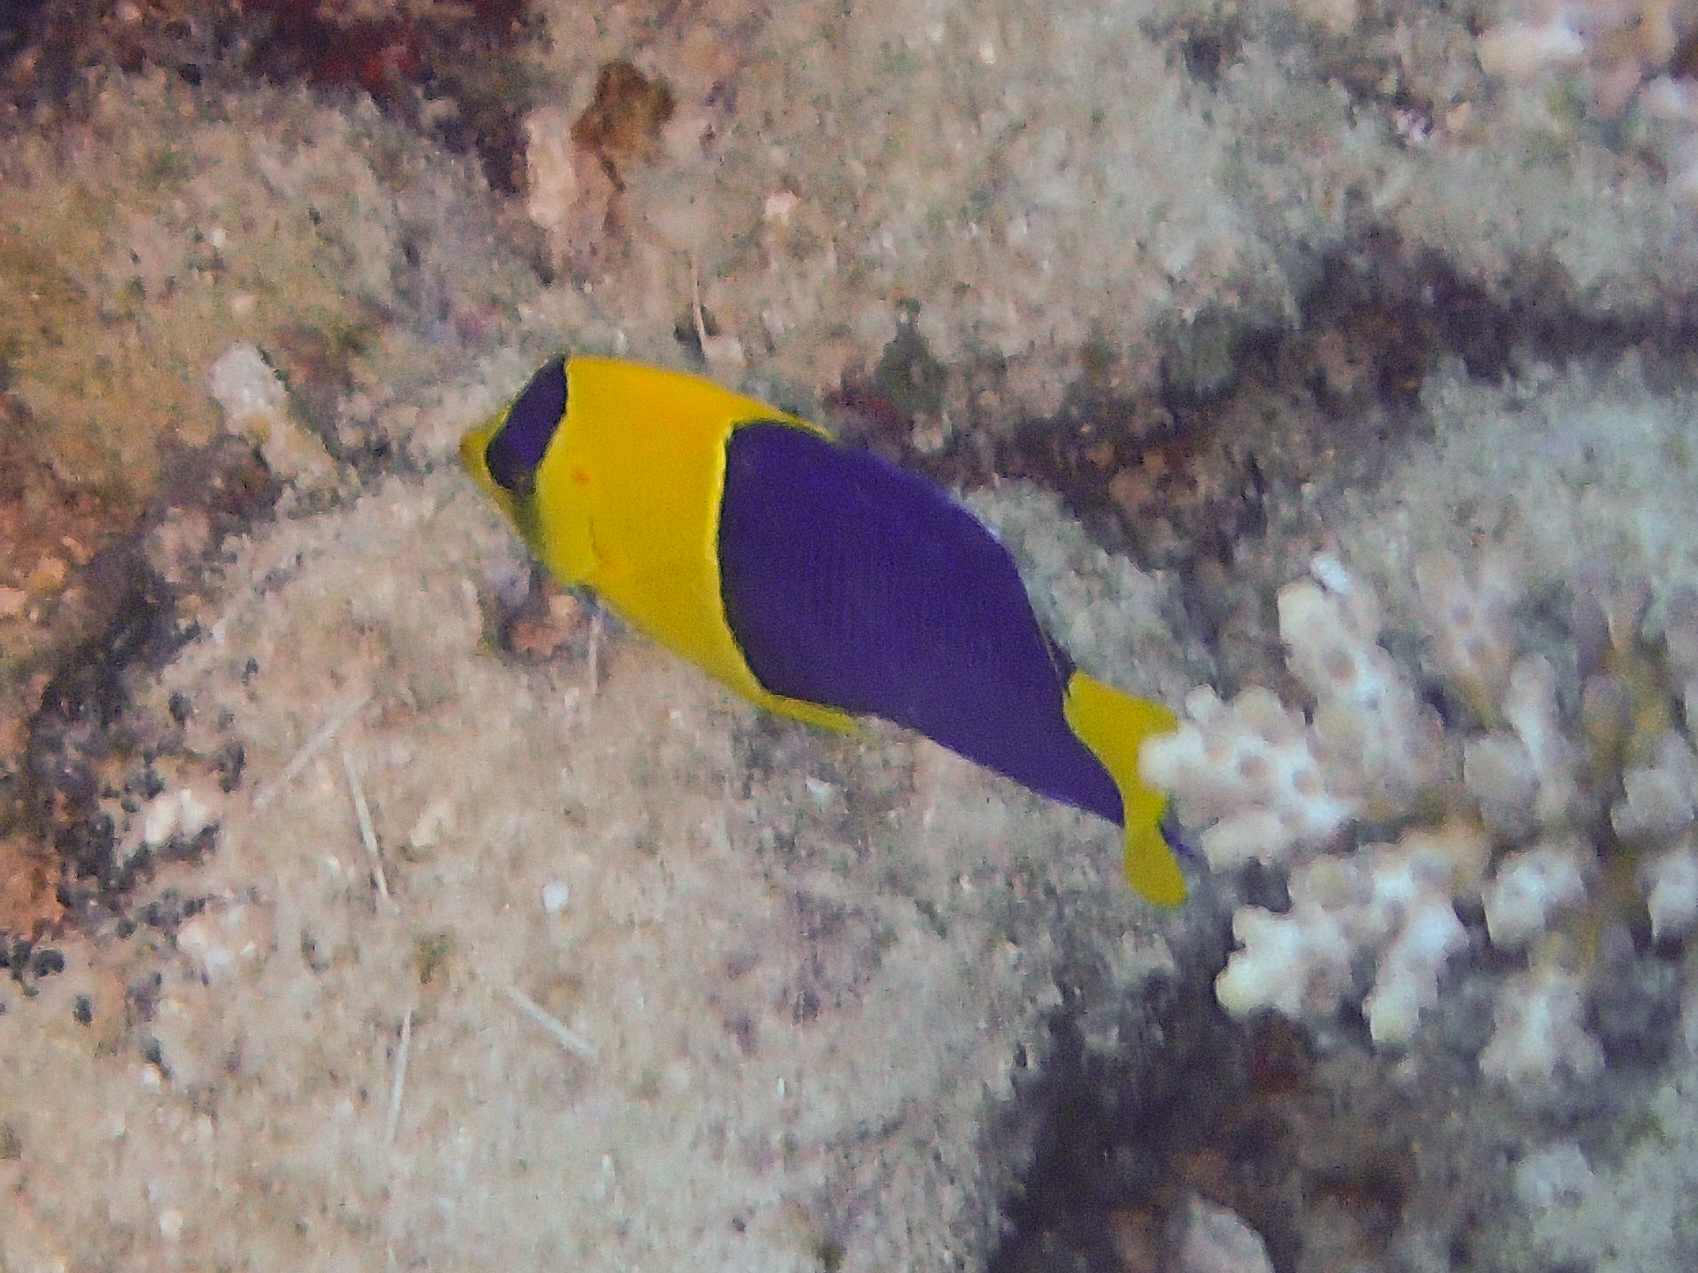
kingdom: Animalia
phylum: Chordata
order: Perciformes
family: Pomacanthidae
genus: Centropyge
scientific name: Centropyge bicolor
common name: Bicolor angelfish
